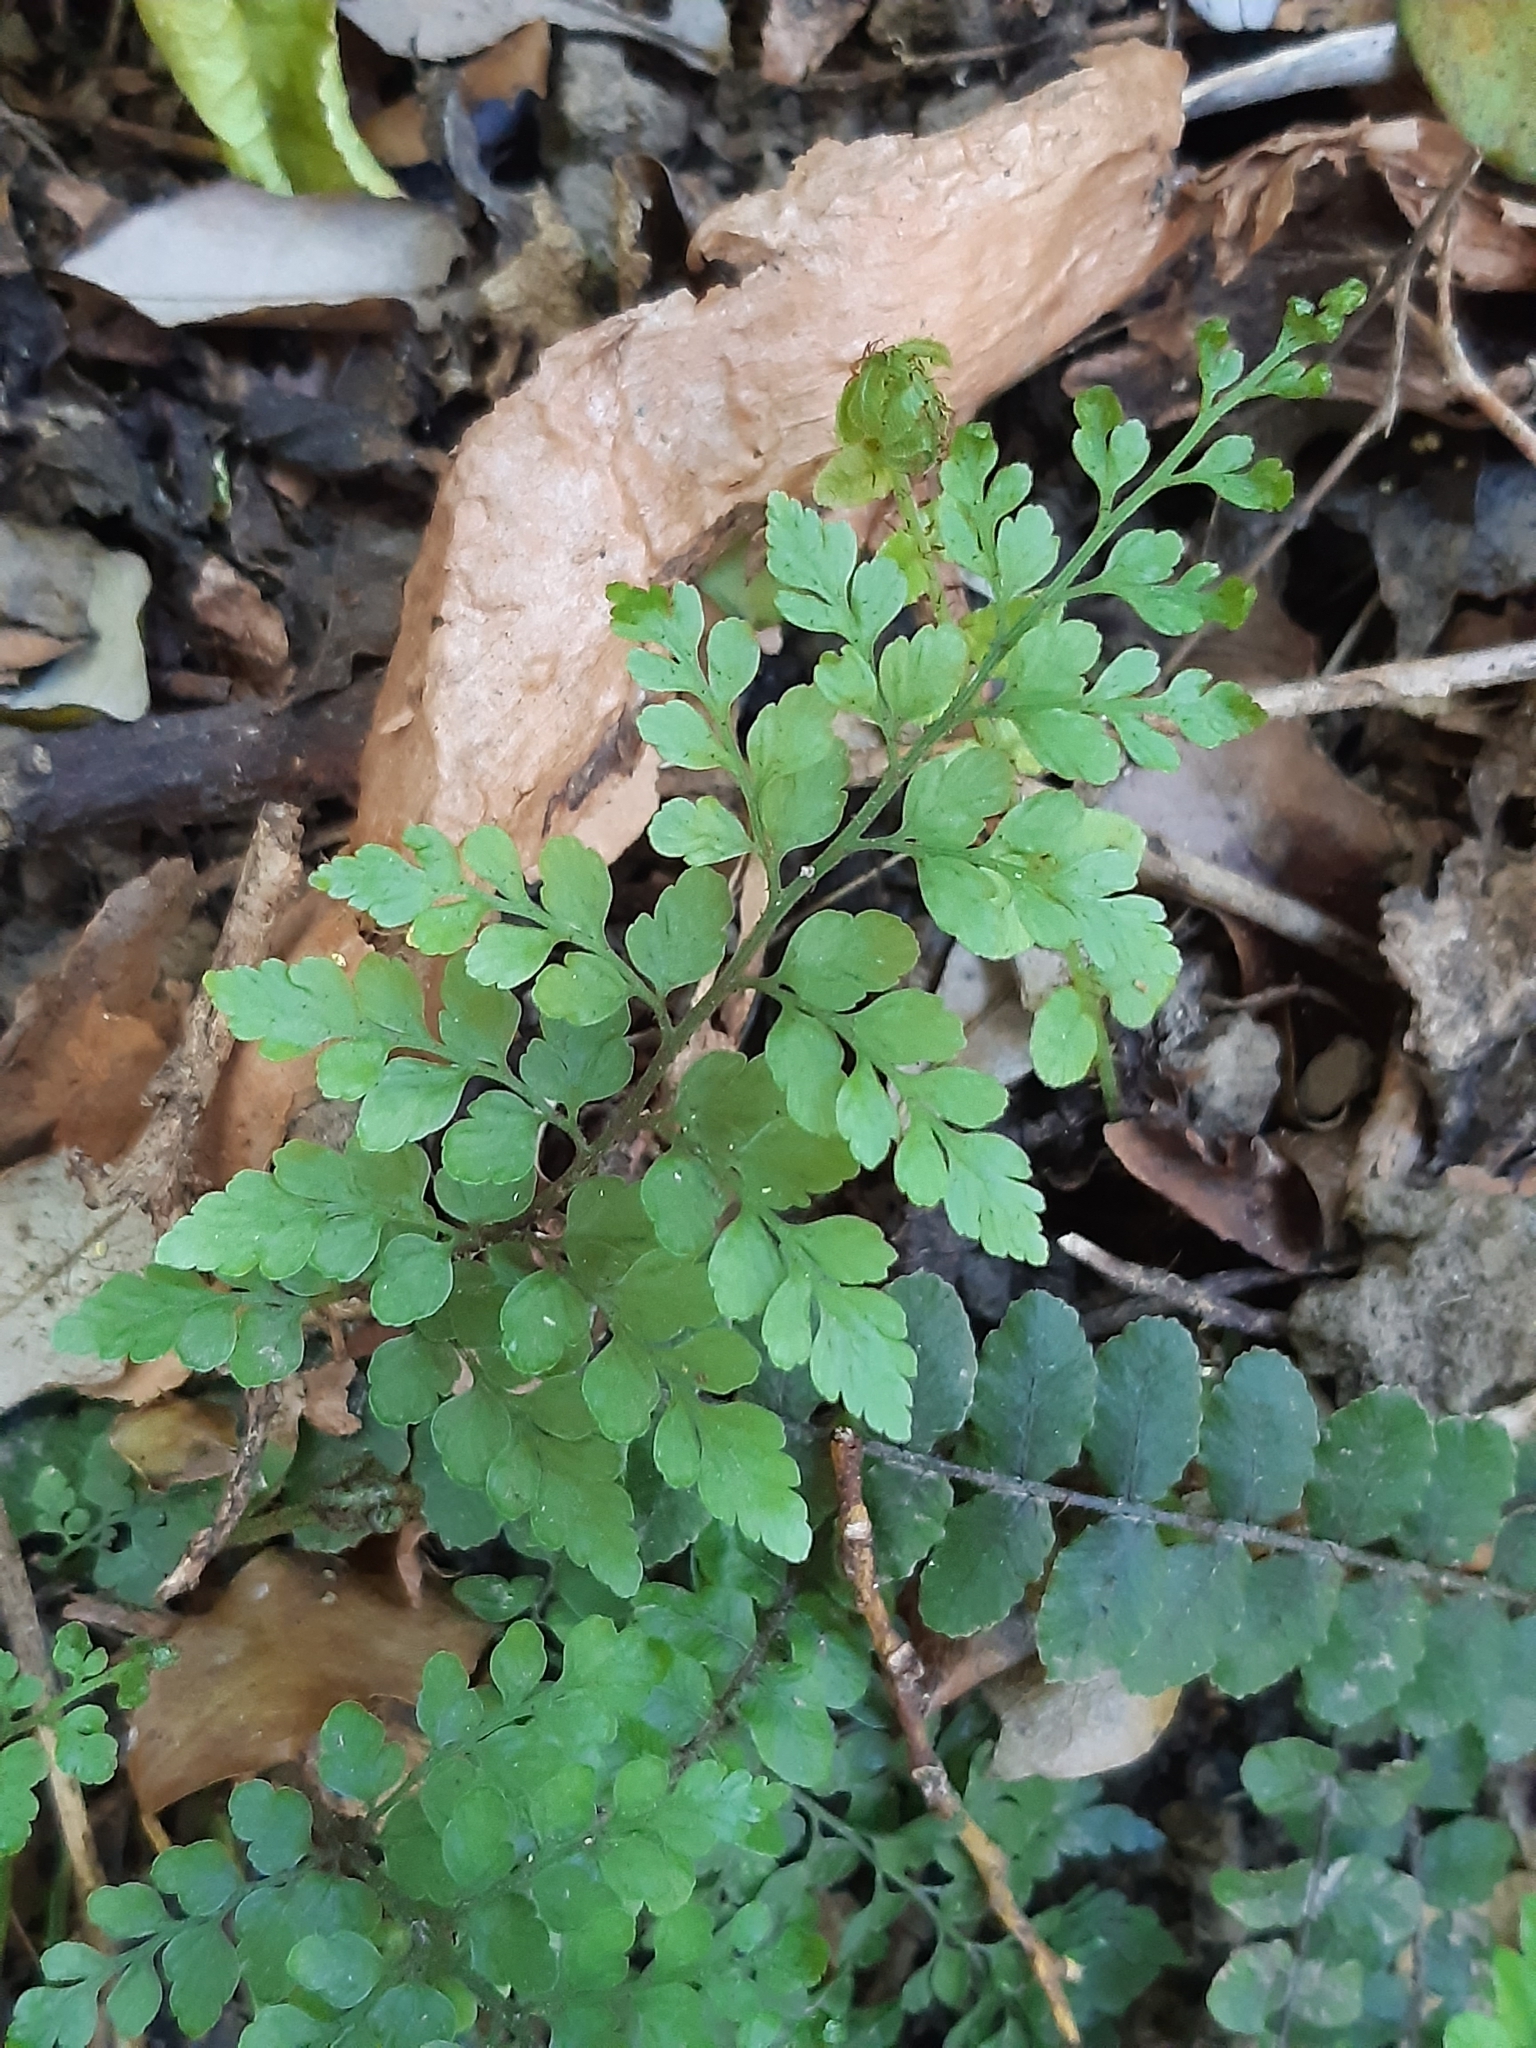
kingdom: Plantae
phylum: Tracheophyta
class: Polypodiopsida
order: Polypodiales
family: Aspleniaceae
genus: Asplenium
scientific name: Asplenium hookerianum
